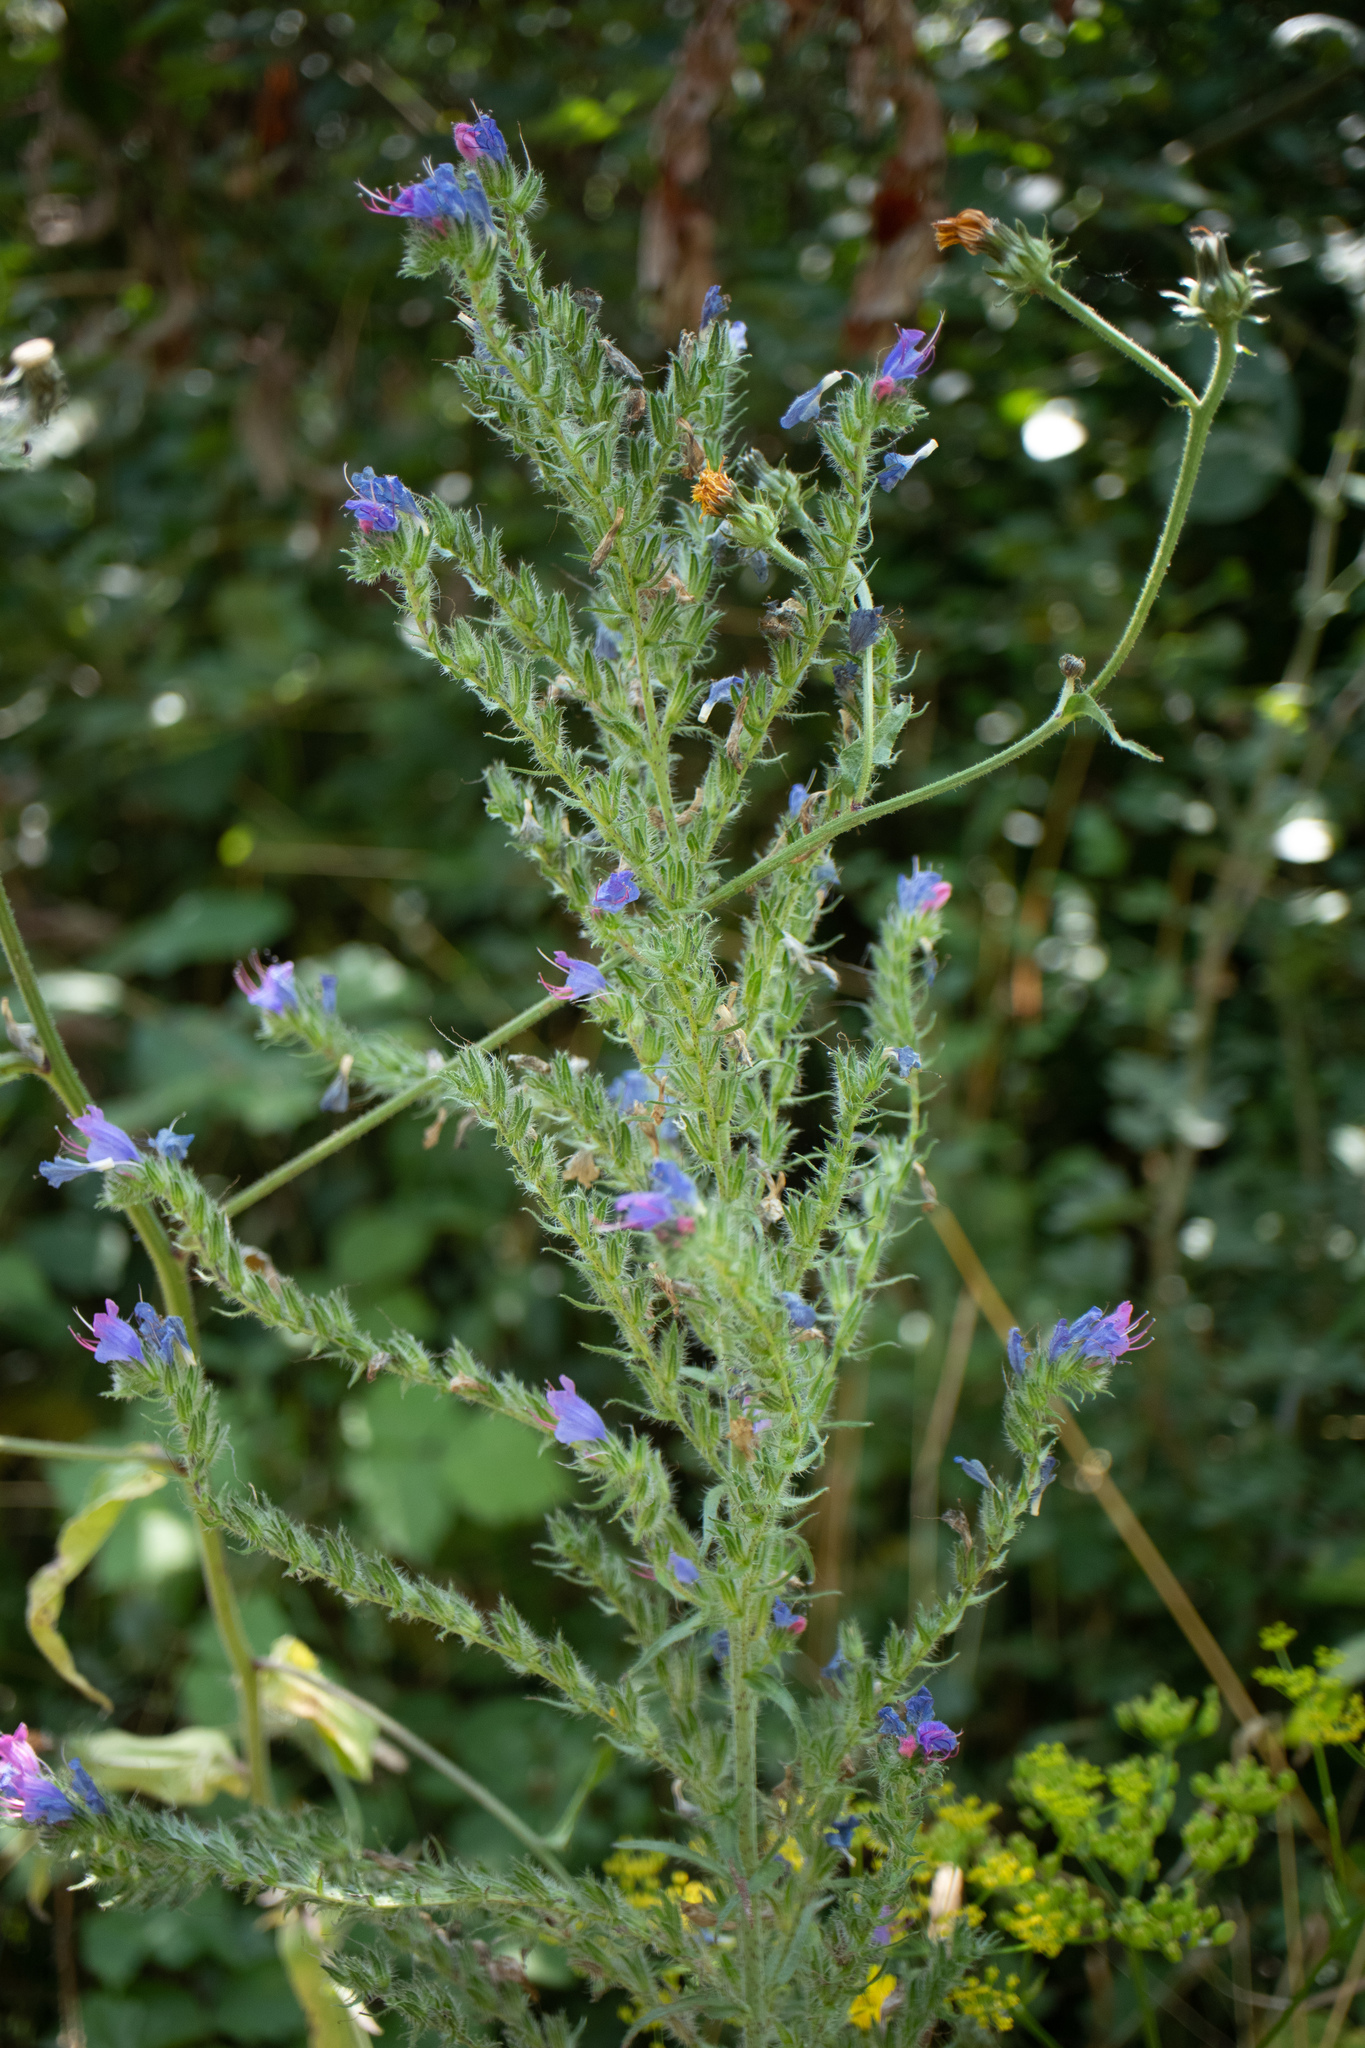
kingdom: Plantae
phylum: Tracheophyta
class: Magnoliopsida
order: Boraginales
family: Boraginaceae
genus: Echium
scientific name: Echium vulgare
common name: Common viper's bugloss
